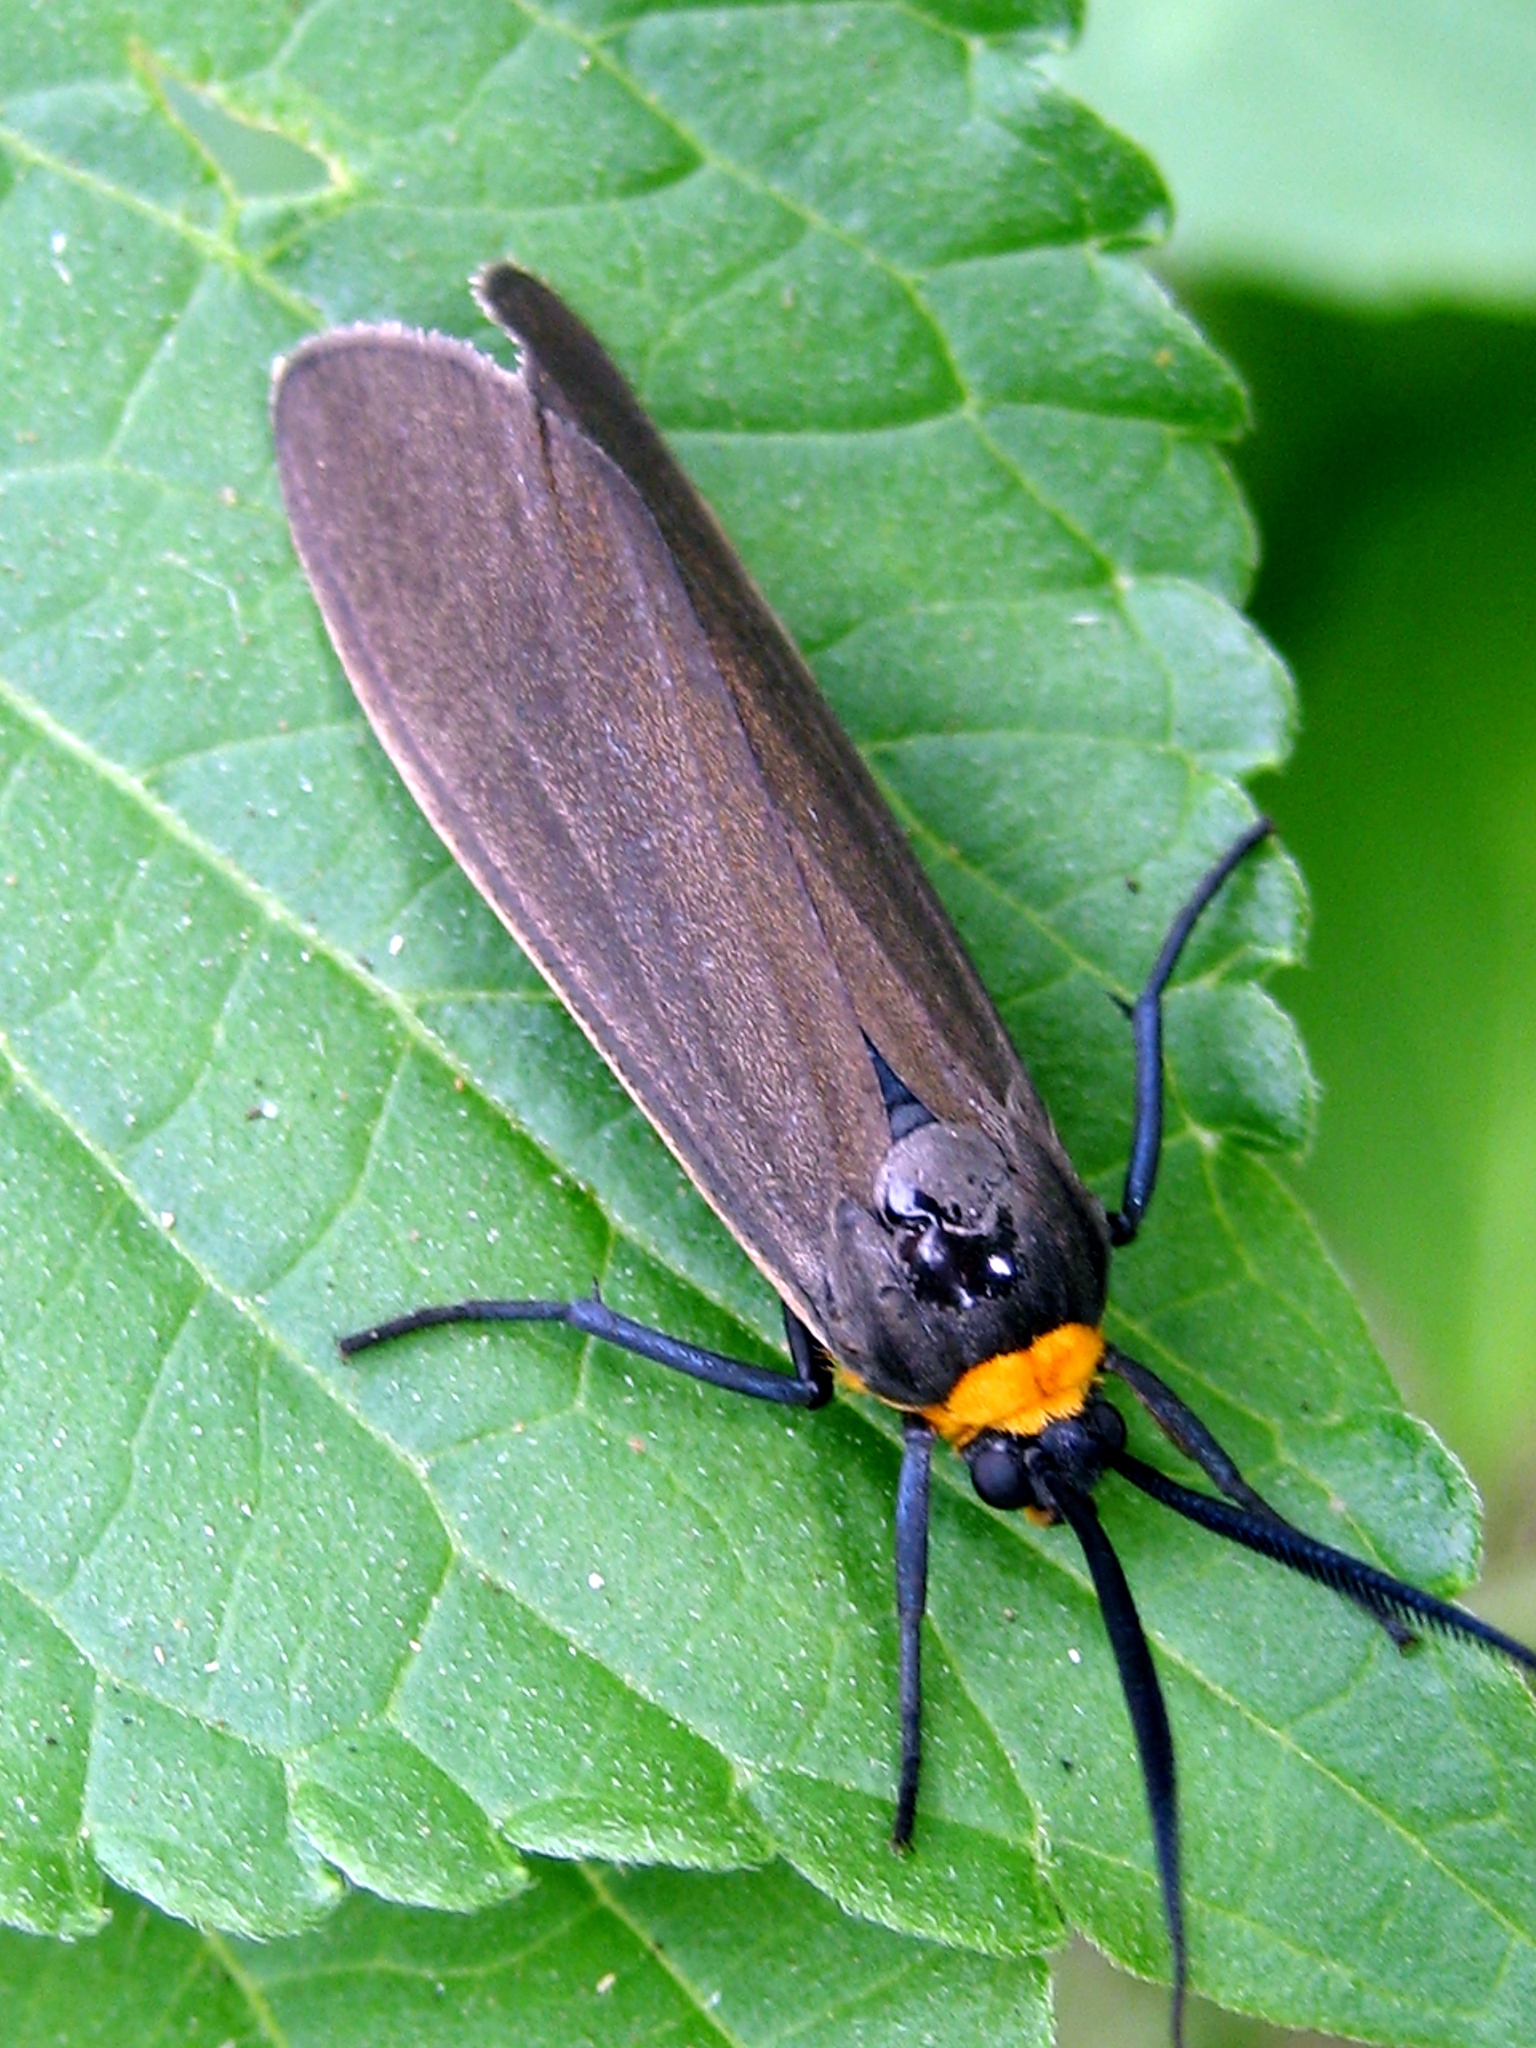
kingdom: Animalia
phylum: Arthropoda
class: Insecta
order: Lepidoptera
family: Erebidae
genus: Cisseps
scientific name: Cisseps fulvicollis
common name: Yellow-collared scape moth
